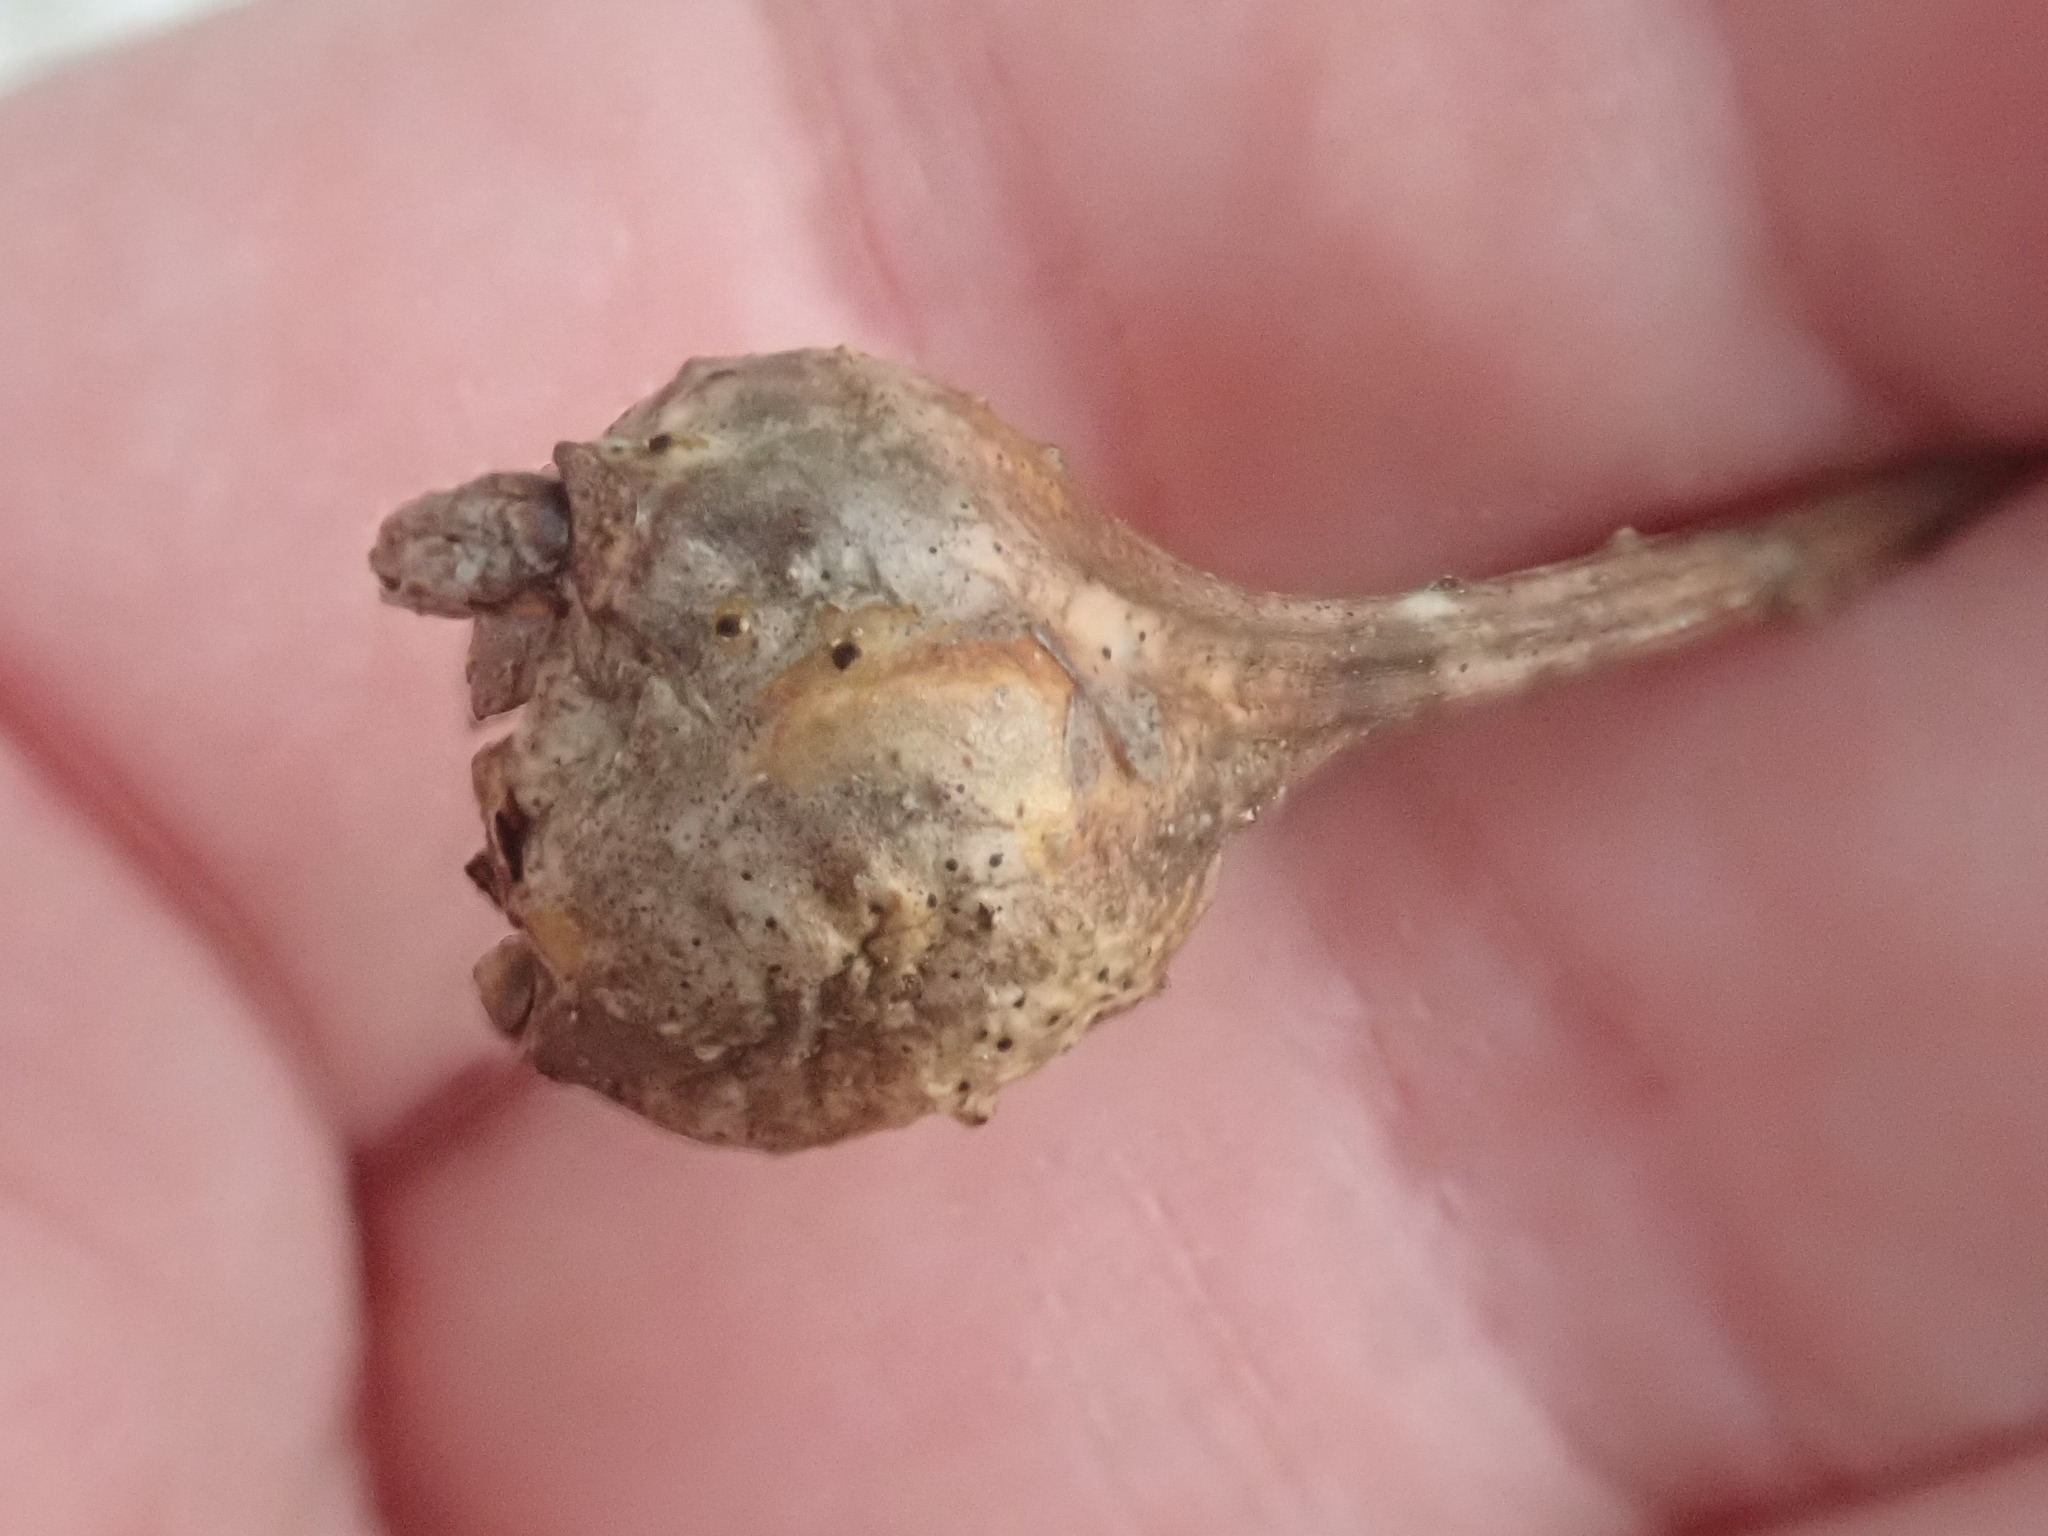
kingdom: Animalia
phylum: Arthropoda
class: Insecta
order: Hymenoptera
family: Cynipidae
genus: Callirhytis
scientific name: Callirhytis clavula
